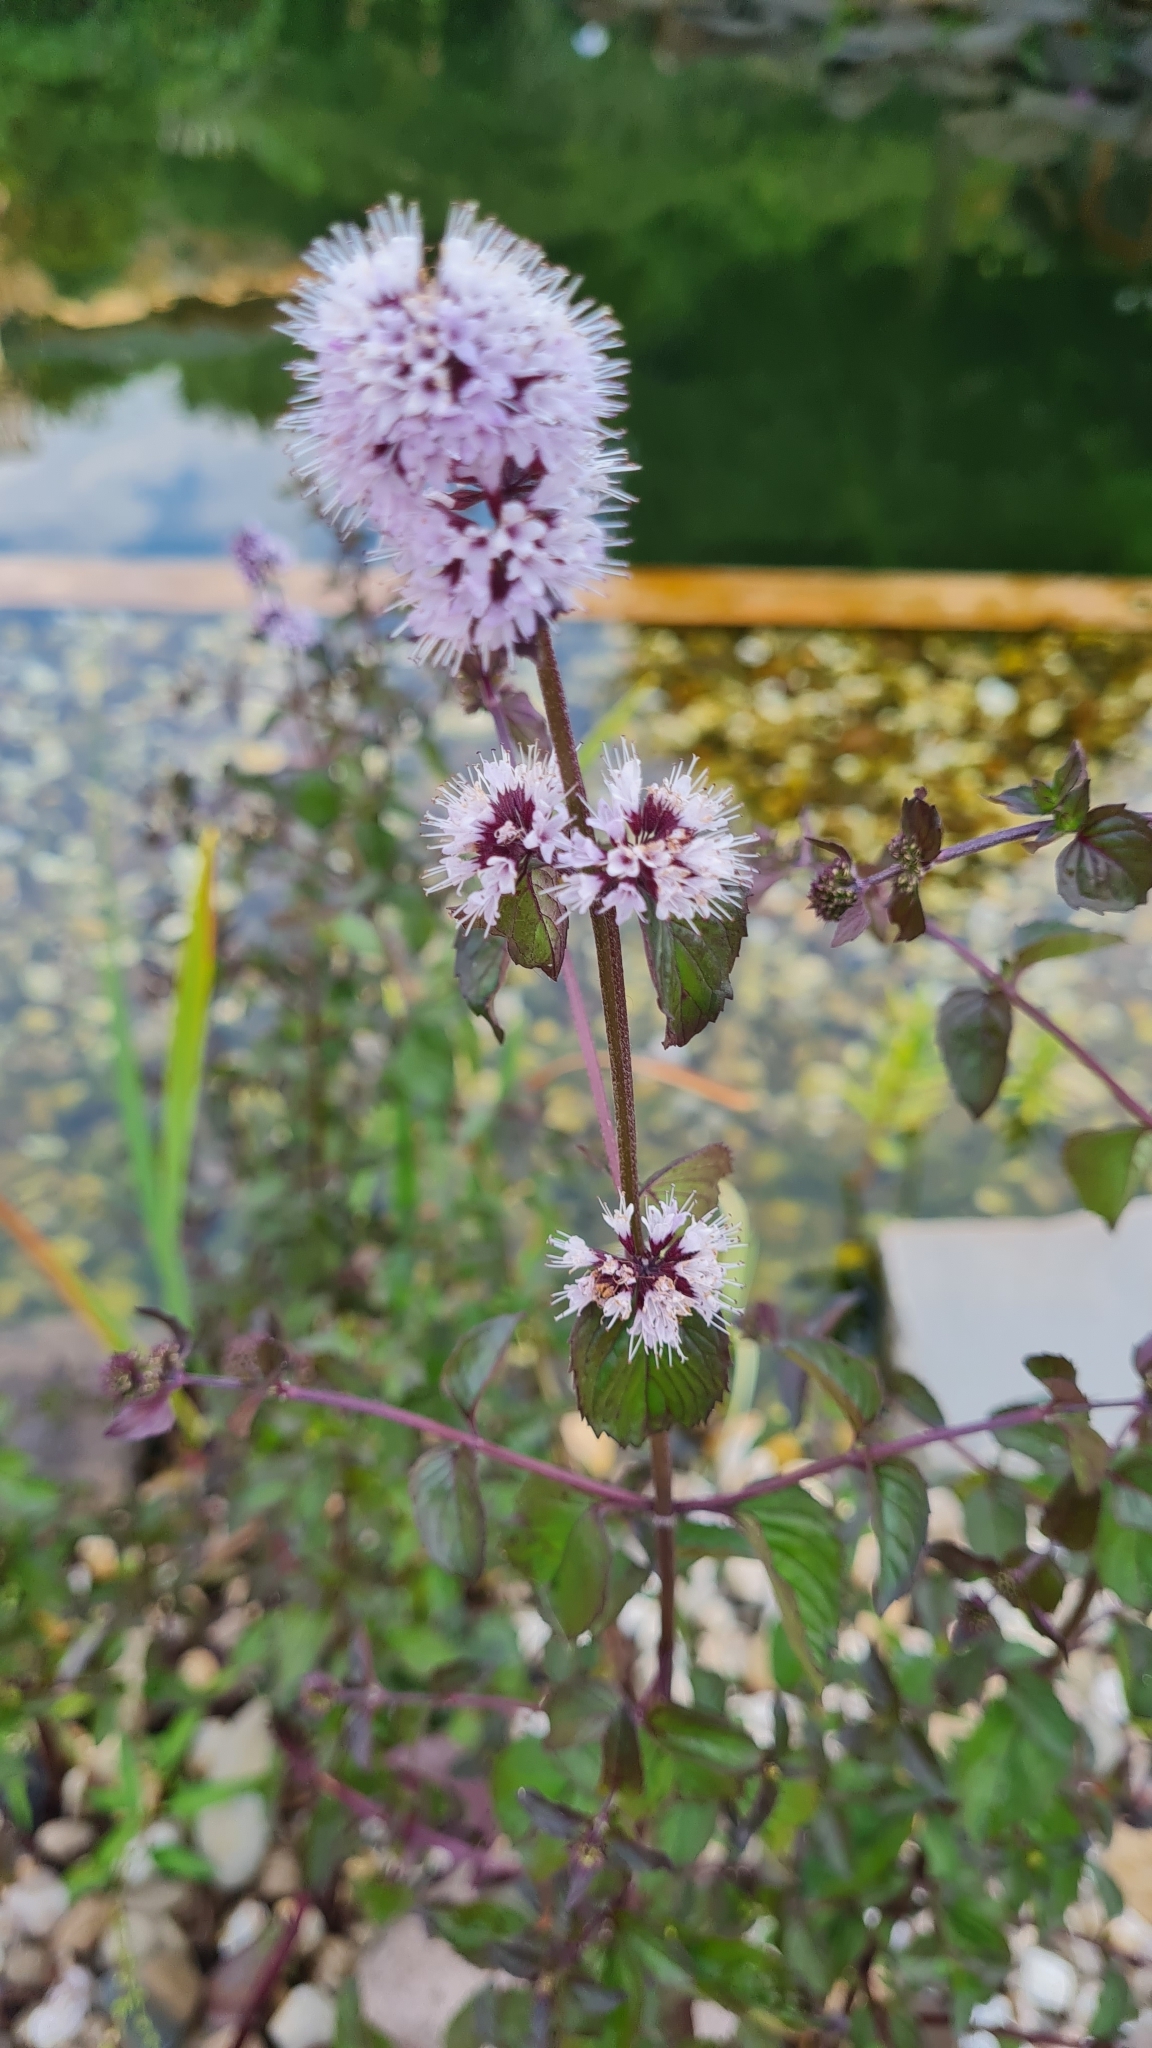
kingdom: Plantae
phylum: Tracheophyta
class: Magnoliopsida
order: Lamiales
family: Lamiaceae
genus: Mentha
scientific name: Mentha aquatica
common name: Water mint
